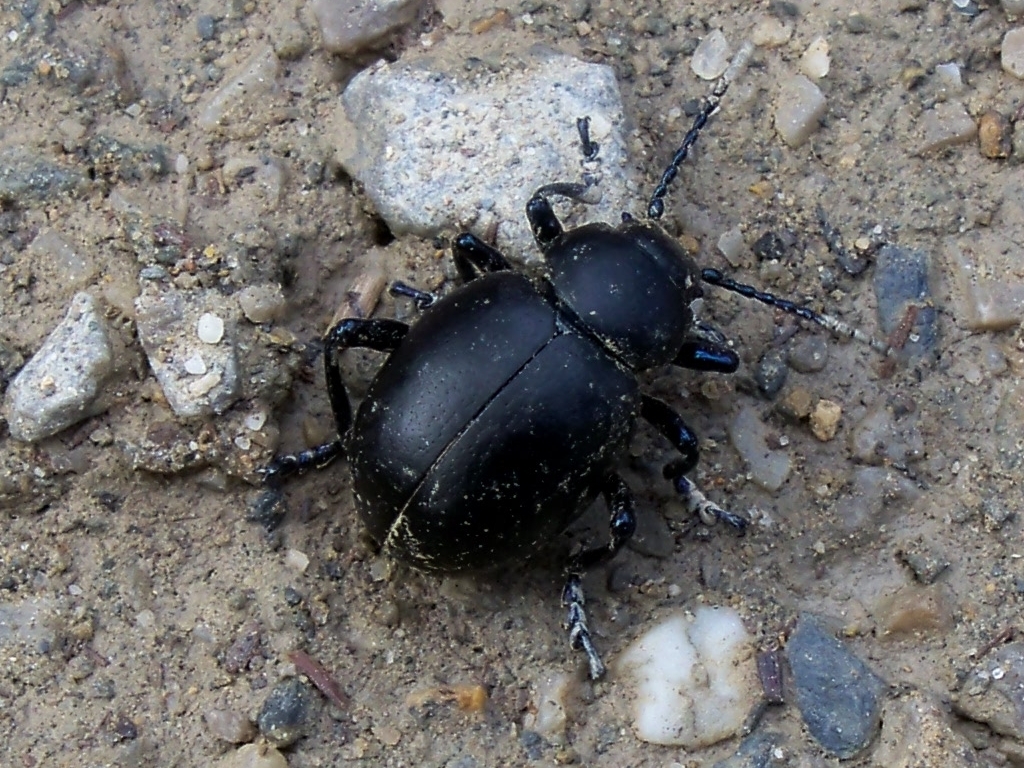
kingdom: Animalia
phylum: Arthropoda
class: Insecta
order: Coleoptera
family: Chrysomelidae
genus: Timarcha
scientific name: Timarcha coarcticollis
